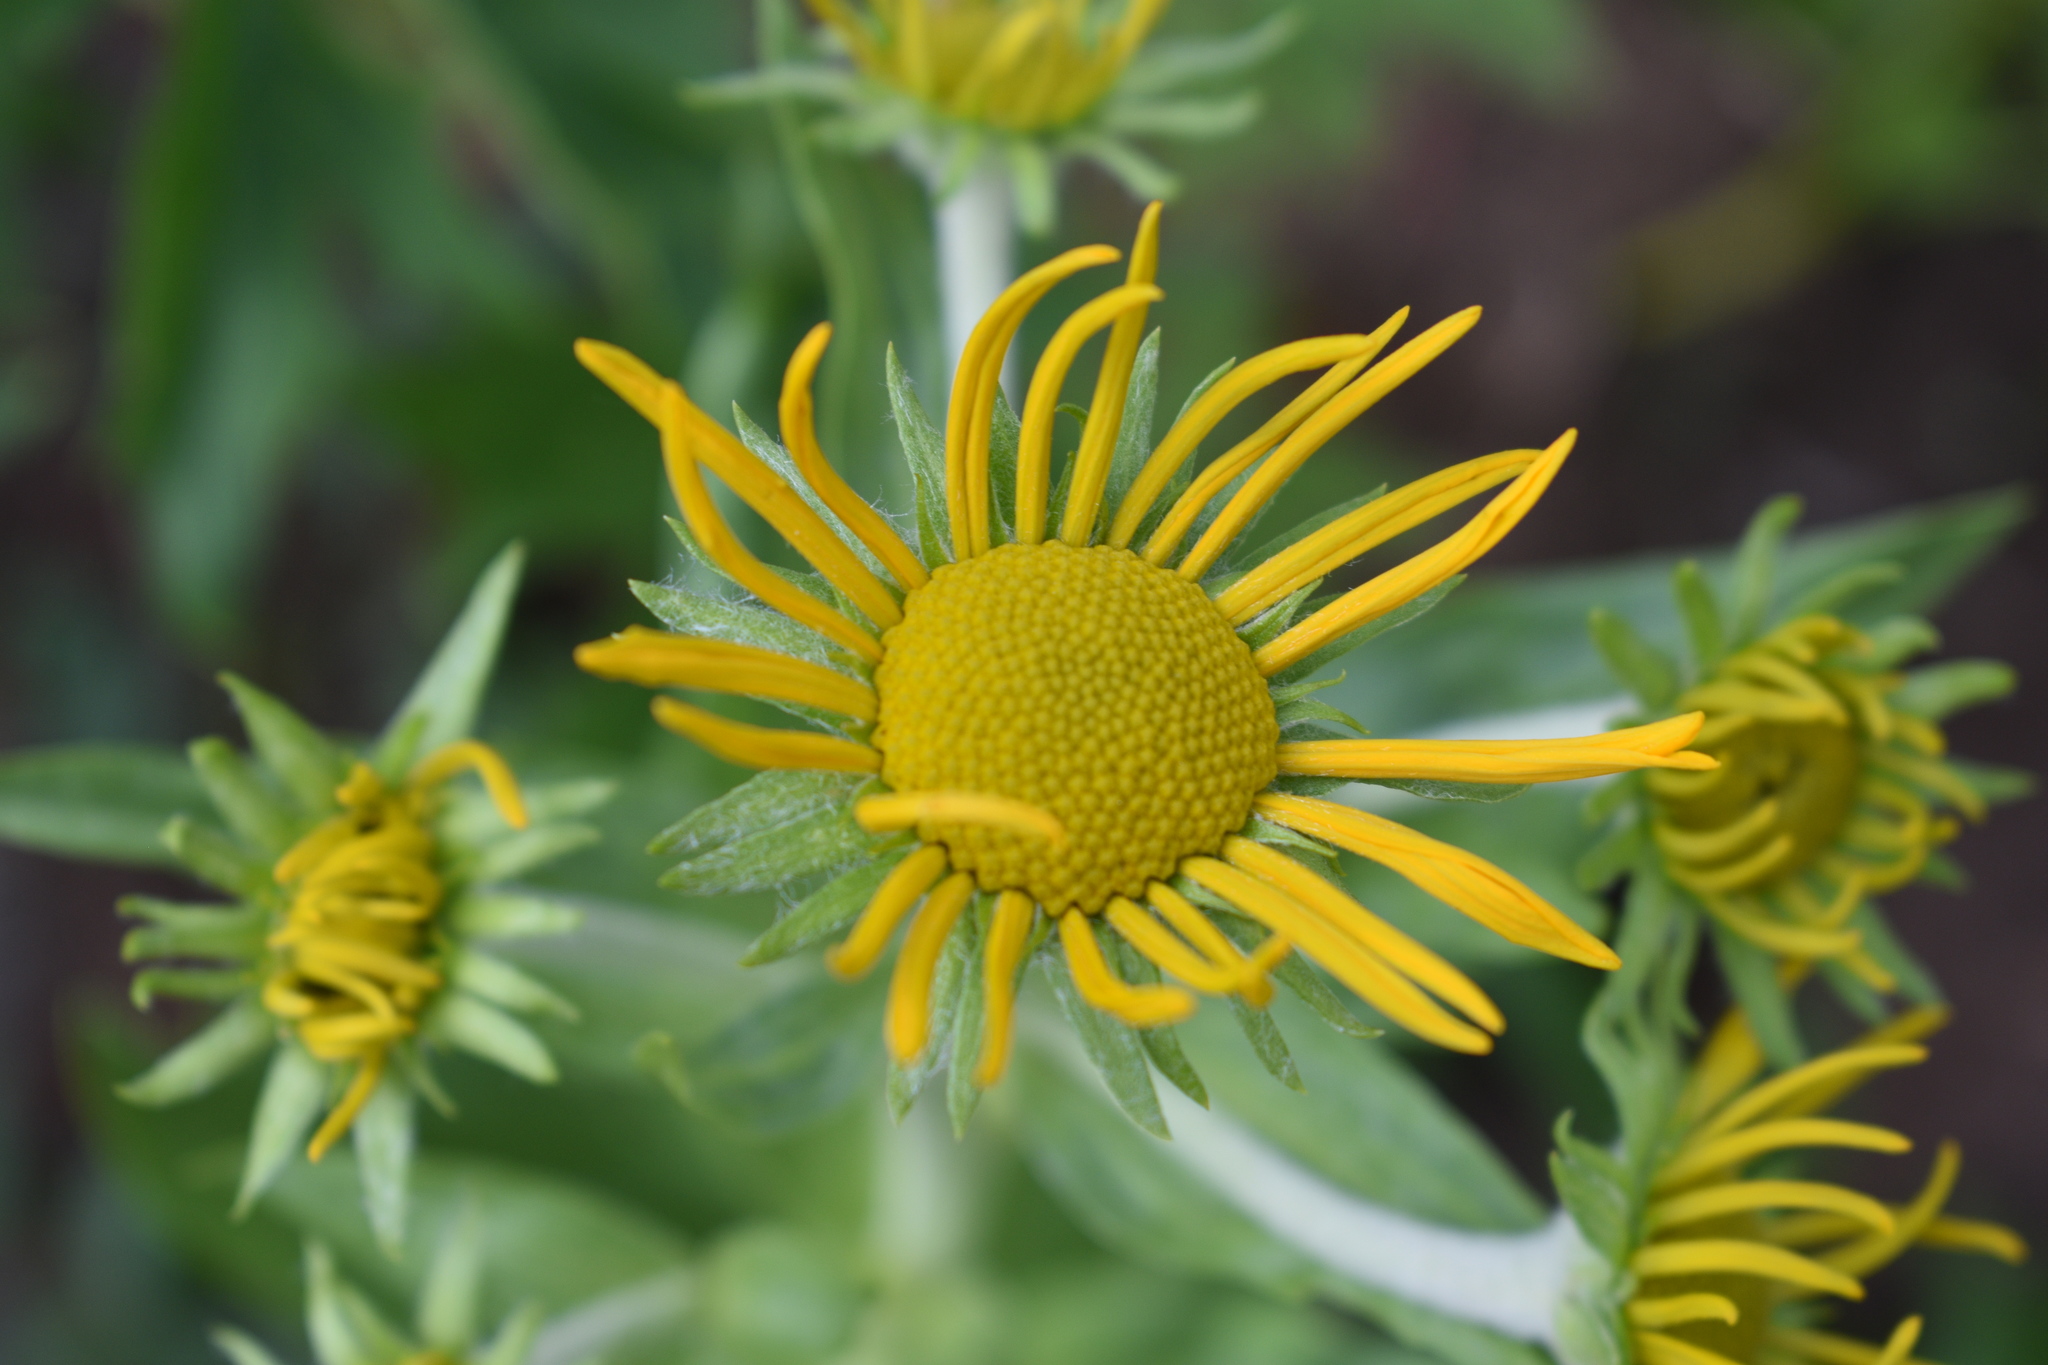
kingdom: Plantae
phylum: Tracheophyta
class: Magnoliopsida
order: Asterales
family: Asteraceae
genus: Hymenoxys
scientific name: Hymenoxys hoopesii
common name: Orange-sneezeweed
